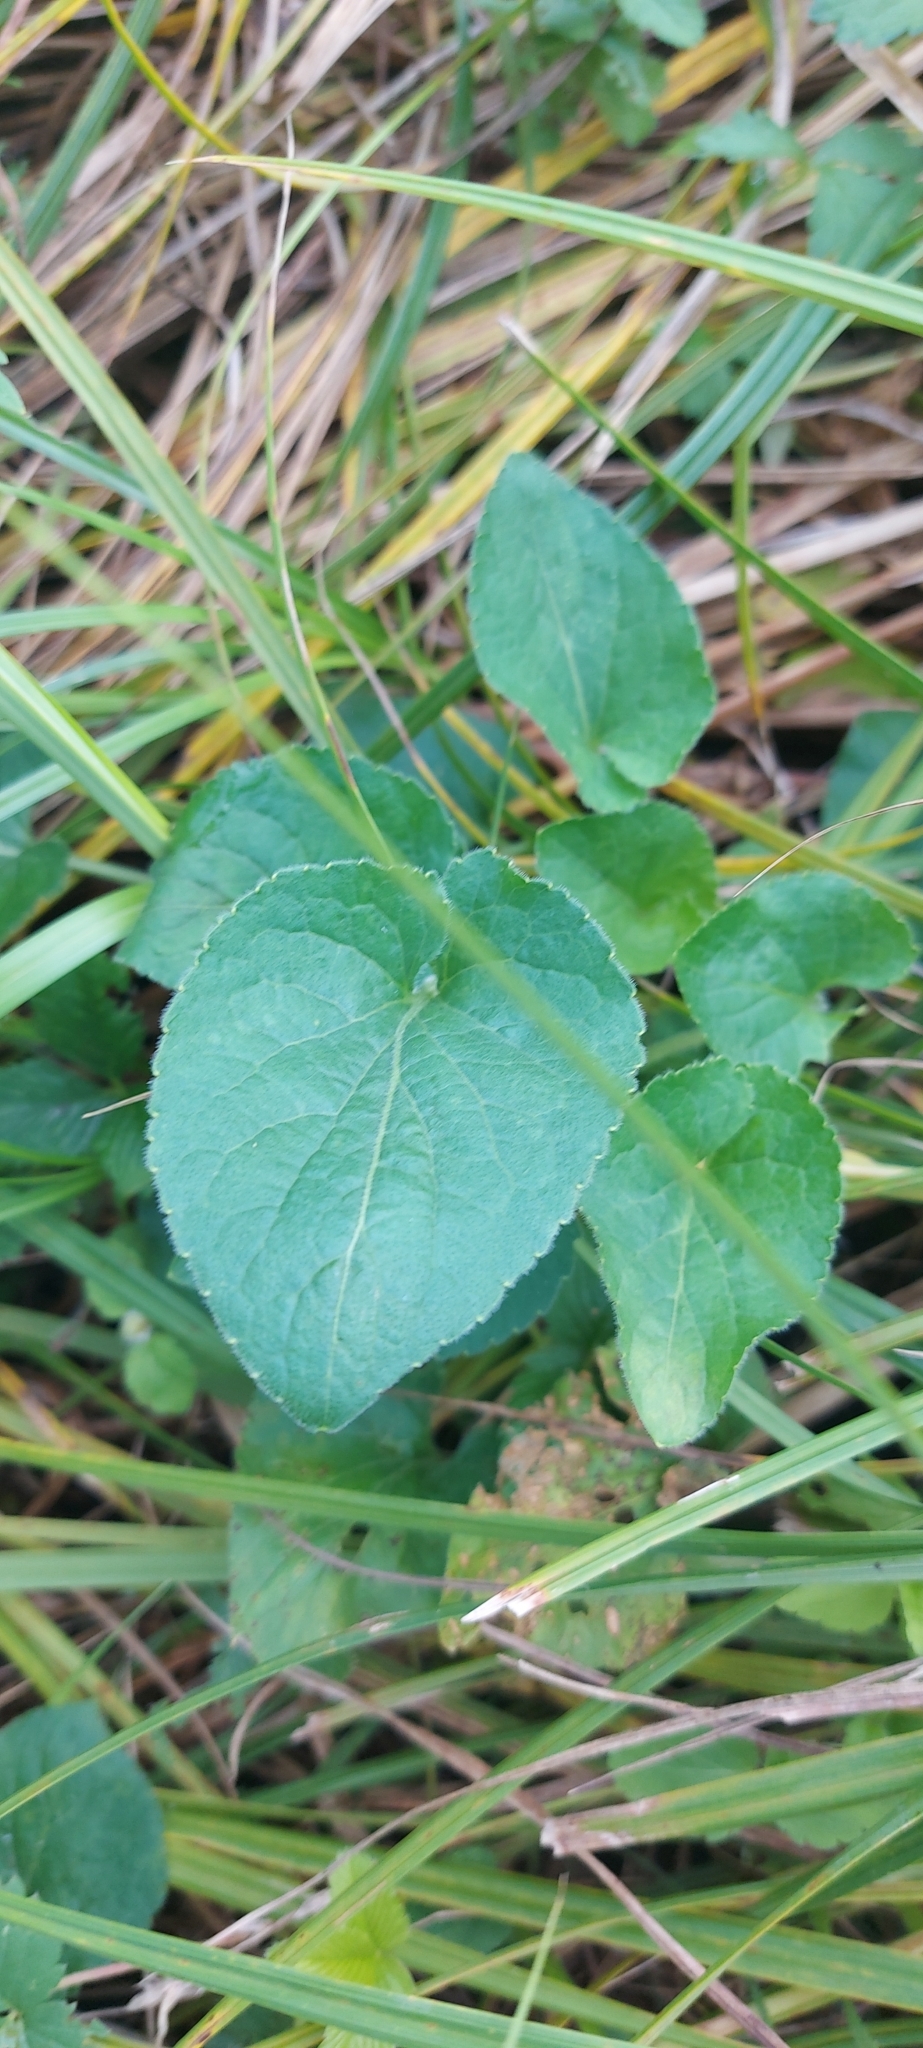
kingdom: Plantae
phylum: Tracheophyta
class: Magnoliopsida
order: Malpighiales
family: Violaceae
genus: Viola
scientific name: Viola hirta
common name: Hairy violet
